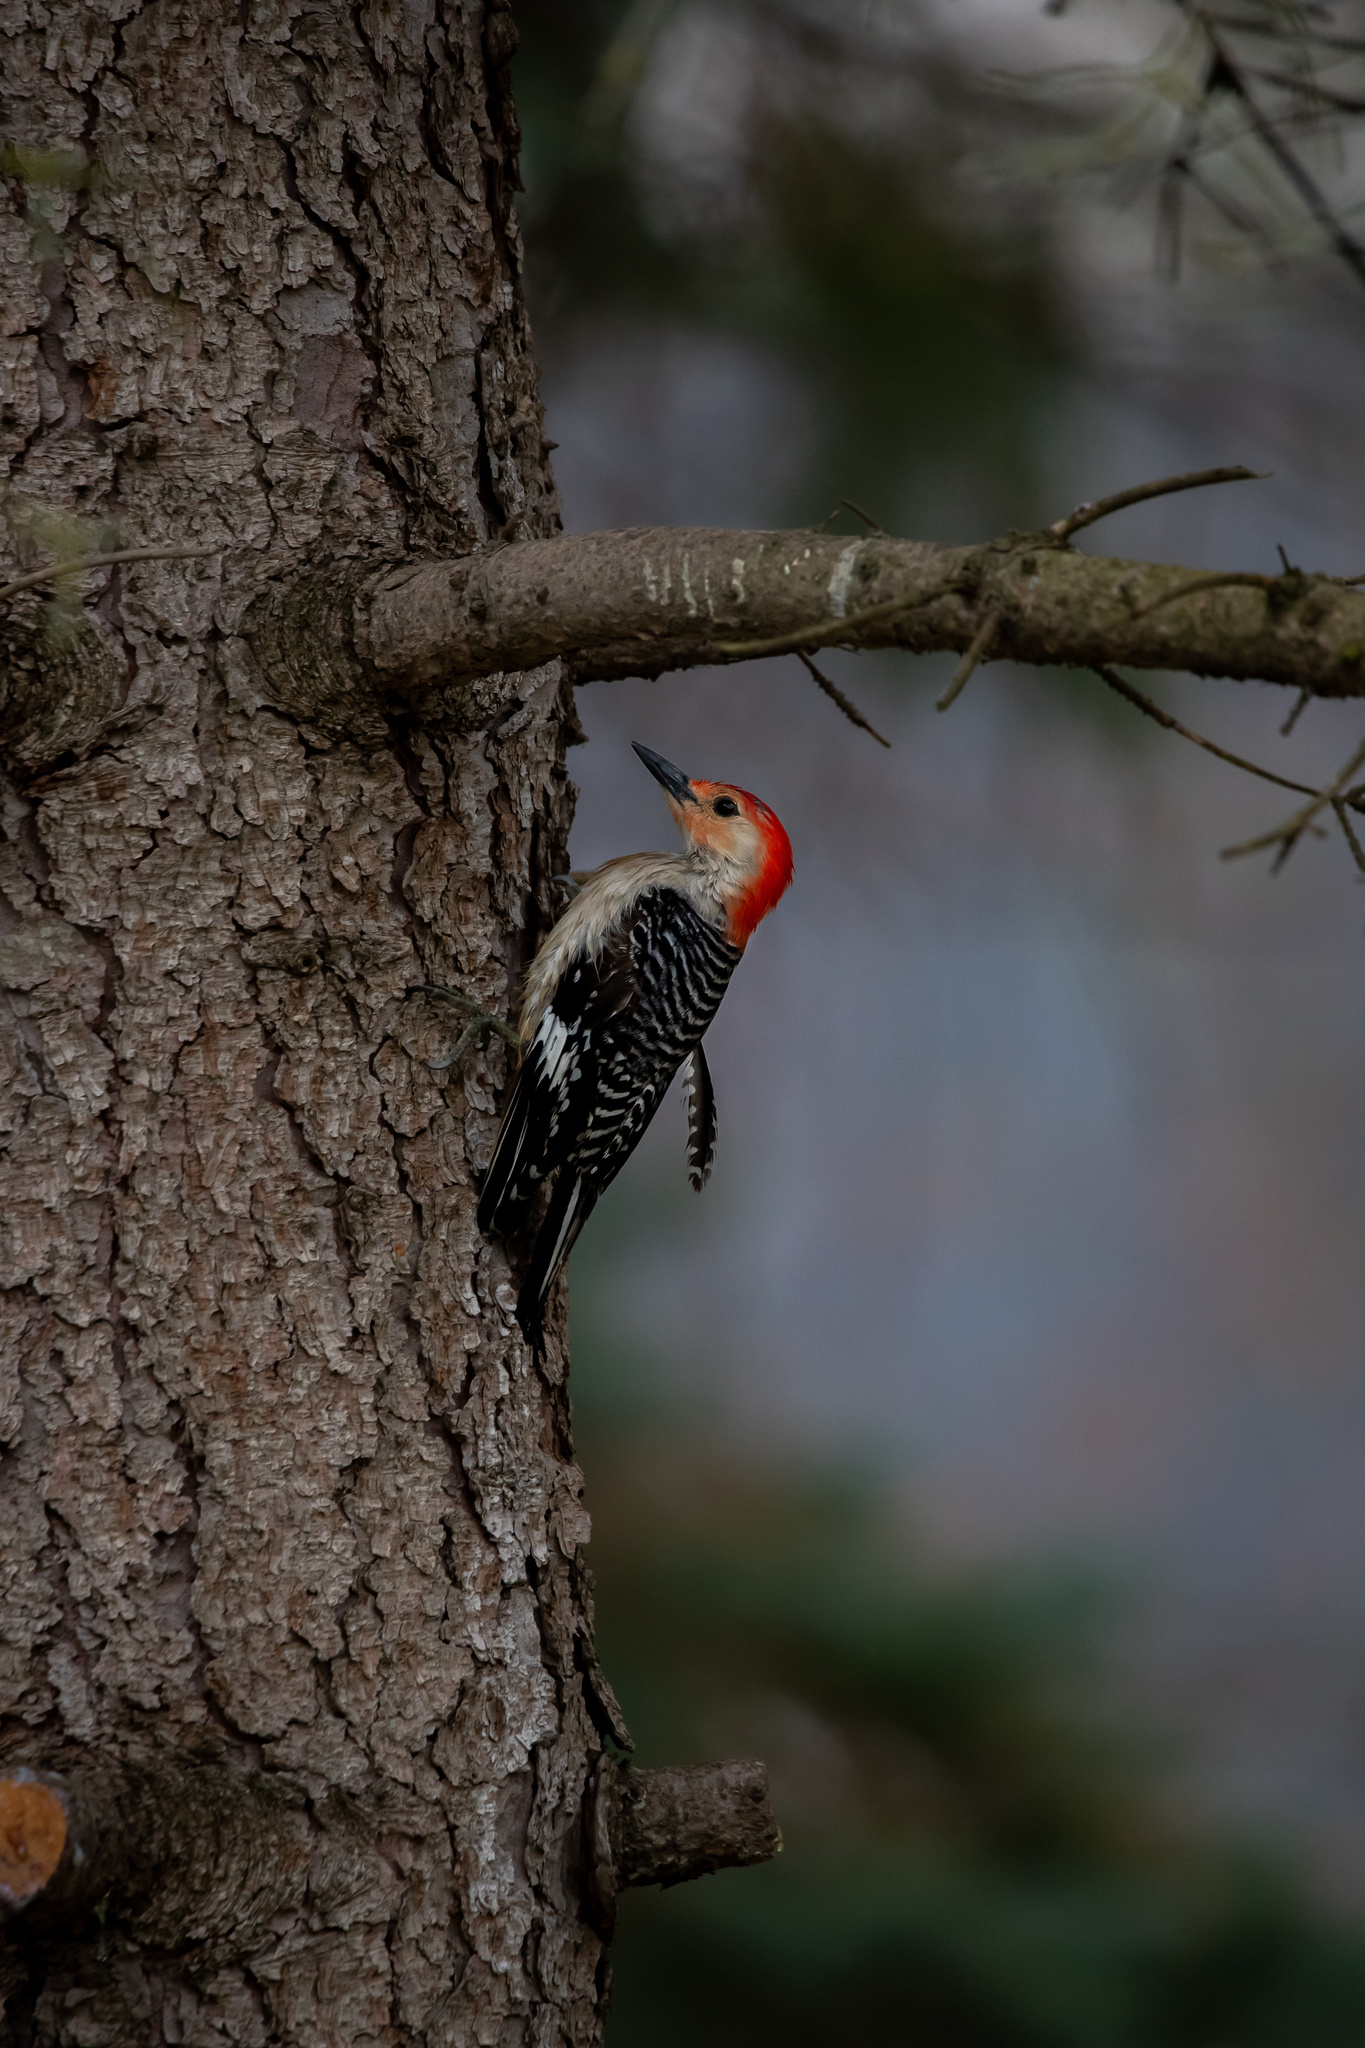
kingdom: Animalia
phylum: Chordata
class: Aves
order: Piciformes
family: Picidae
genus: Melanerpes
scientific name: Melanerpes carolinus
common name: Red-bellied woodpecker
